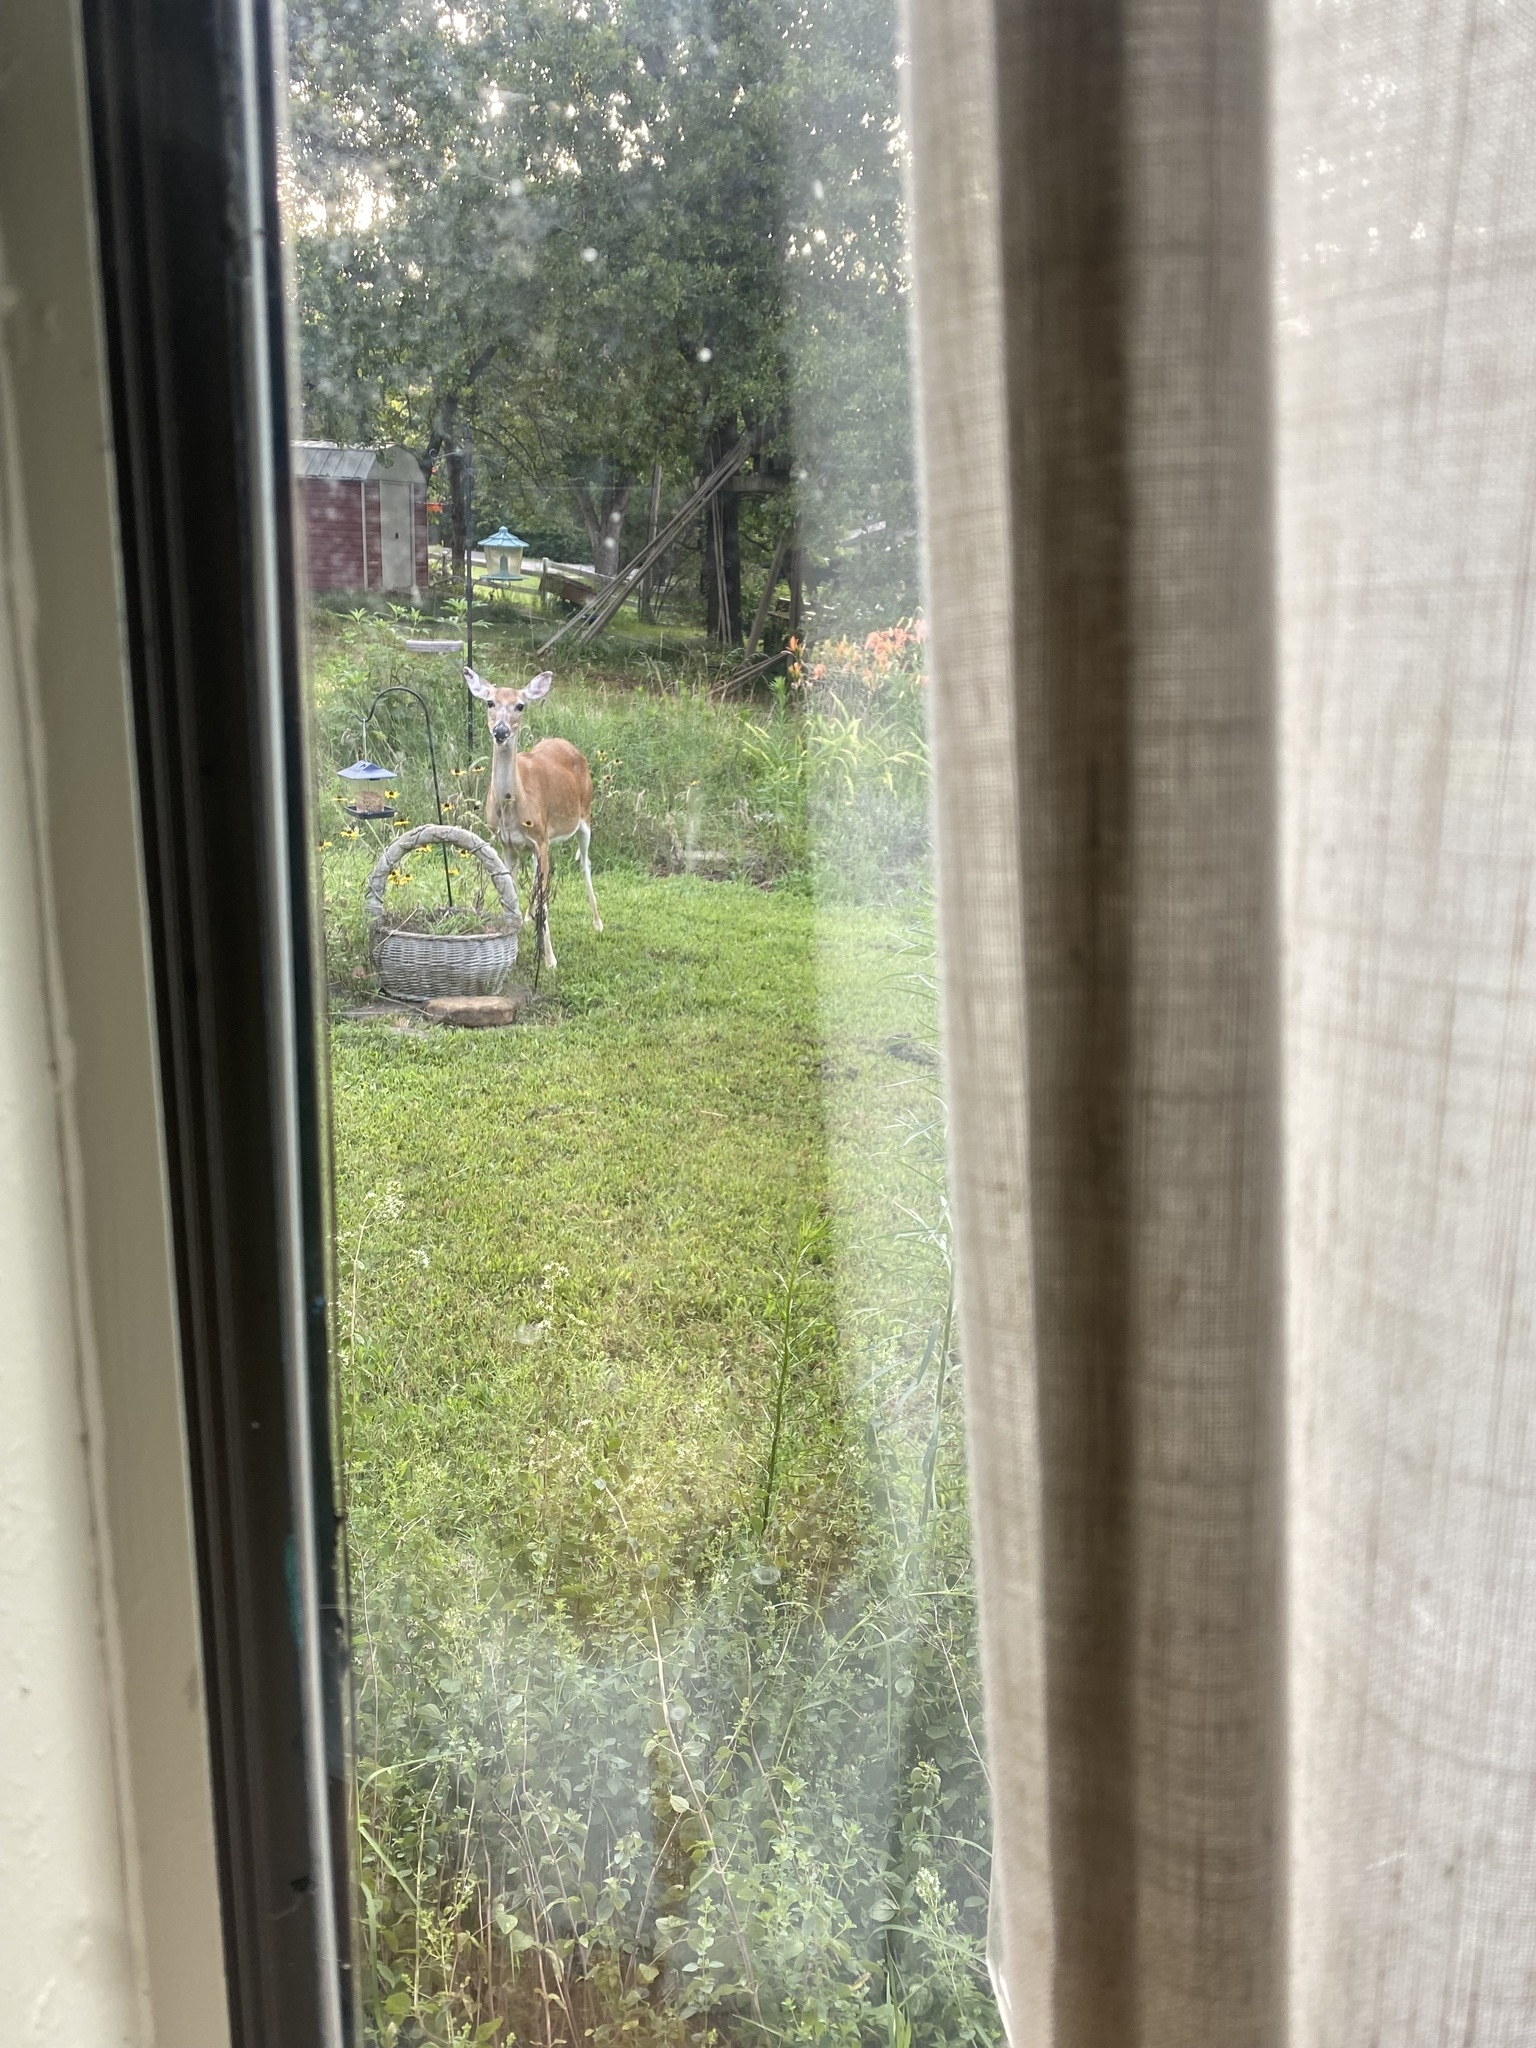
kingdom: Animalia
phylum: Chordata
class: Mammalia
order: Artiodactyla
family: Cervidae
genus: Odocoileus
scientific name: Odocoileus virginianus
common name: White-tailed deer
